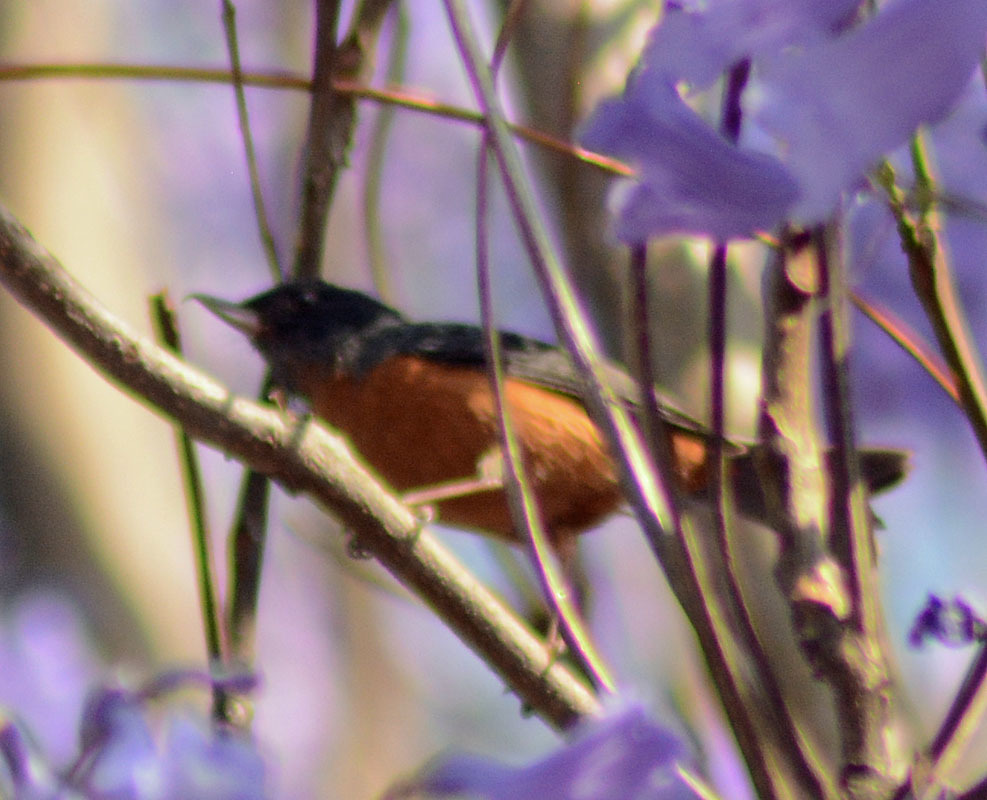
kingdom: Animalia
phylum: Chordata
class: Aves
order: Passeriformes
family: Thraupidae
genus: Diglossa
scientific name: Diglossa baritula
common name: Cinnamon-bellied flowerpiercer
